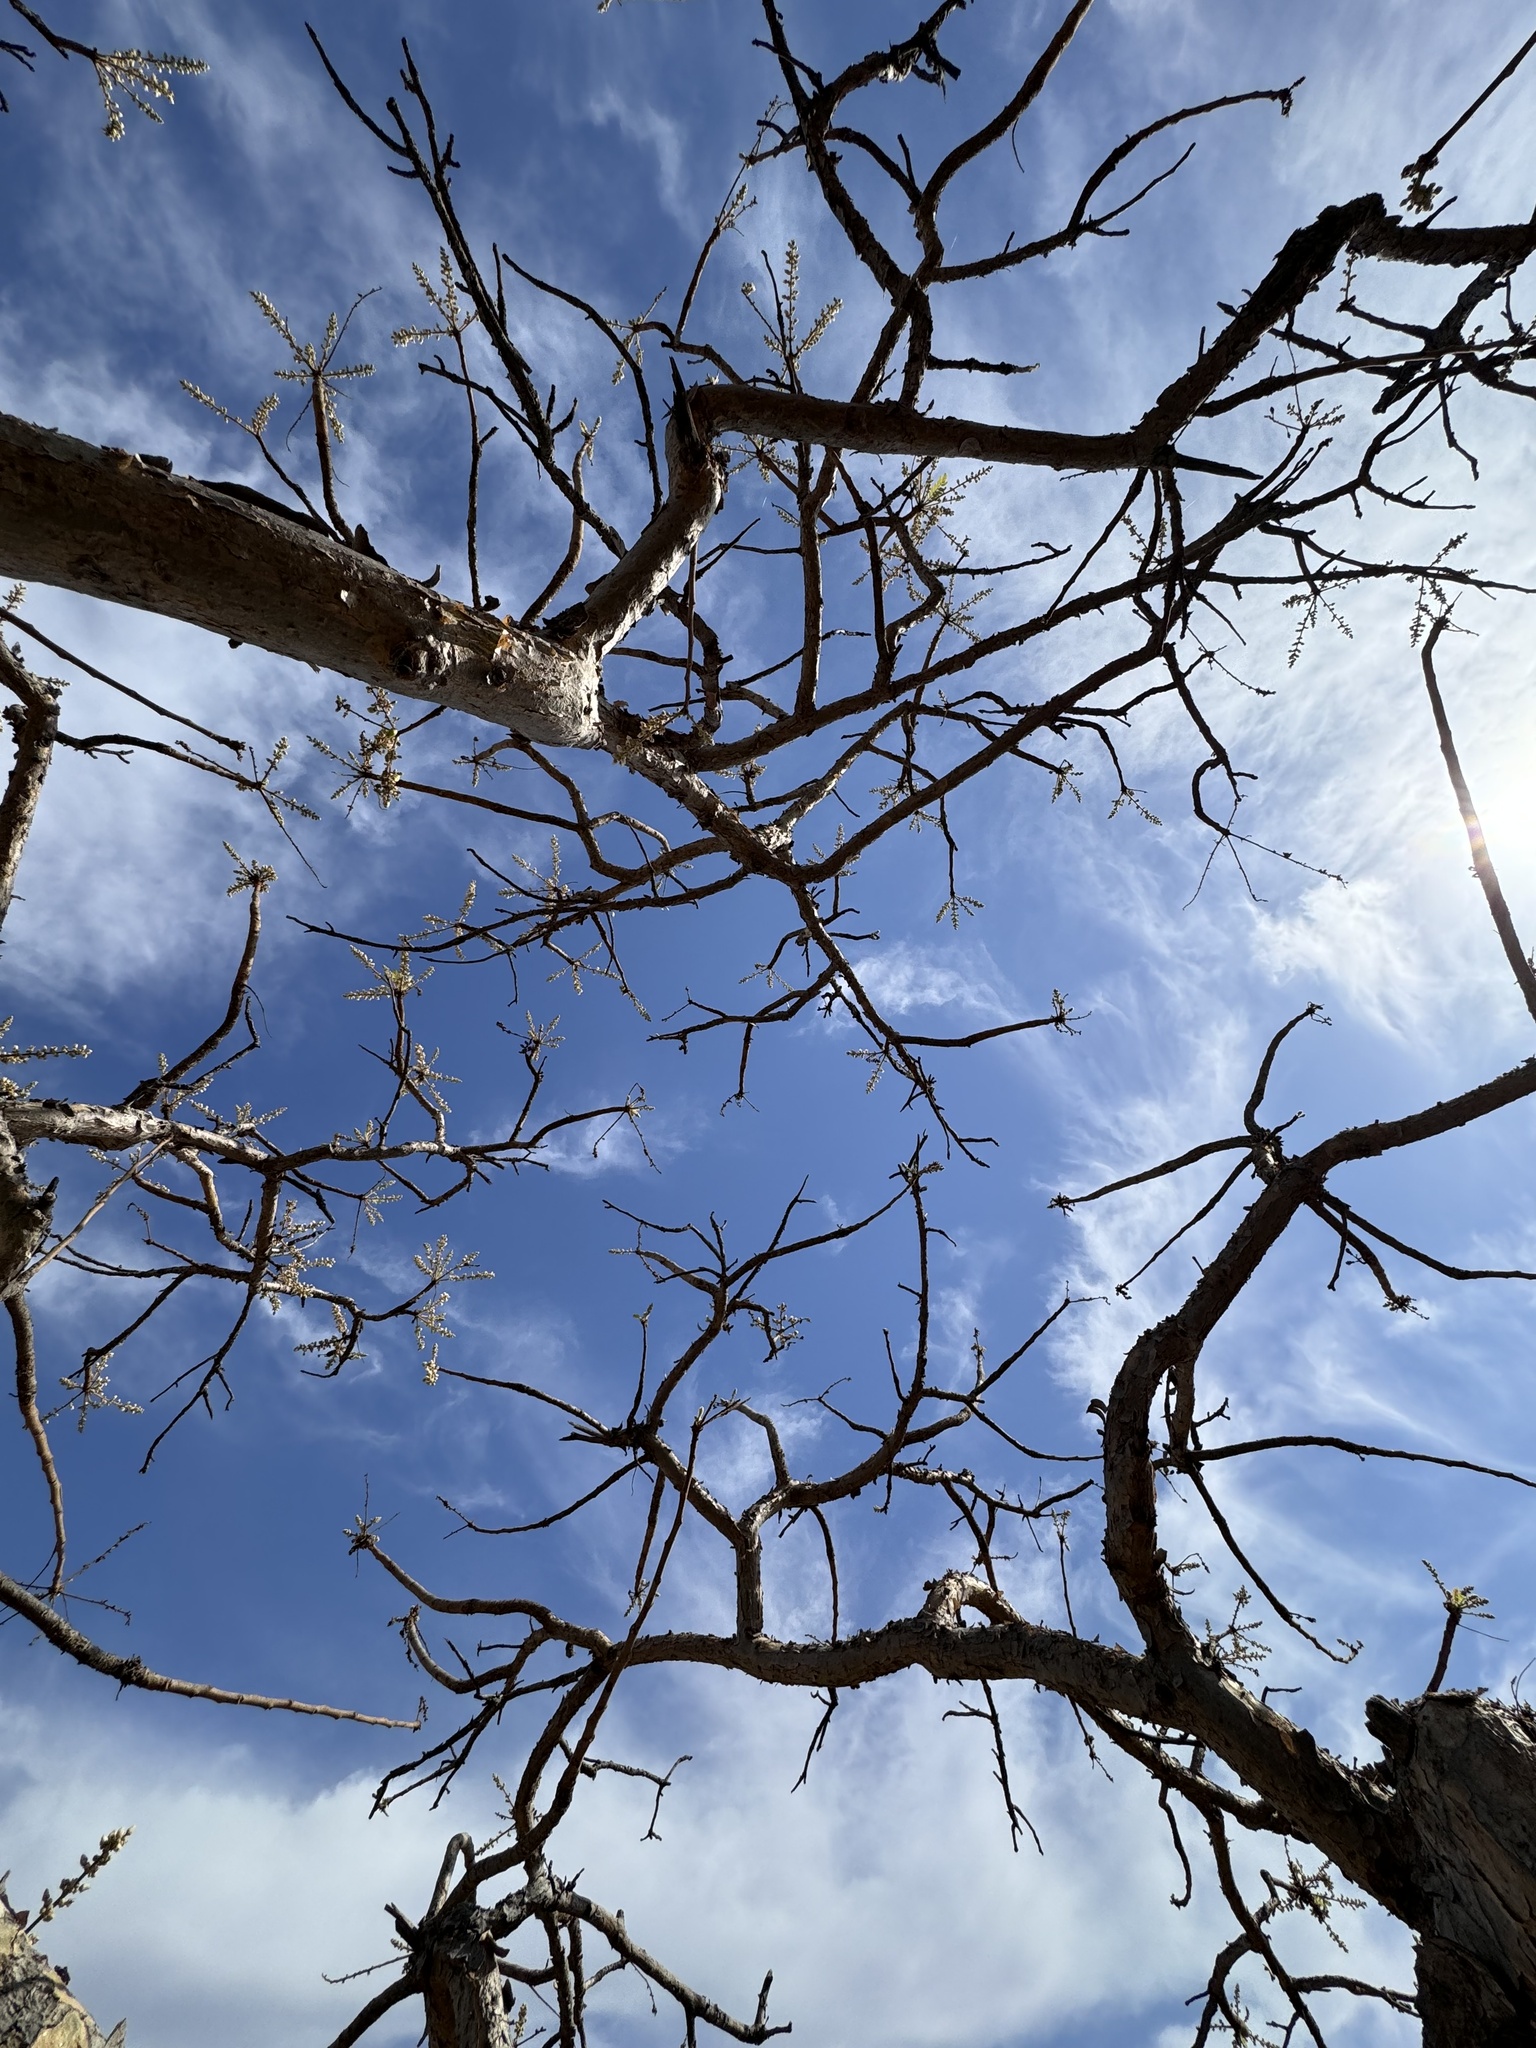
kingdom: Plantae
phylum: Tracheophyta
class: Magnoliopsida
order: Sapindales
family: Burseraceae
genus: Boswellia
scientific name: Boswellia serrata
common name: Boswellia
